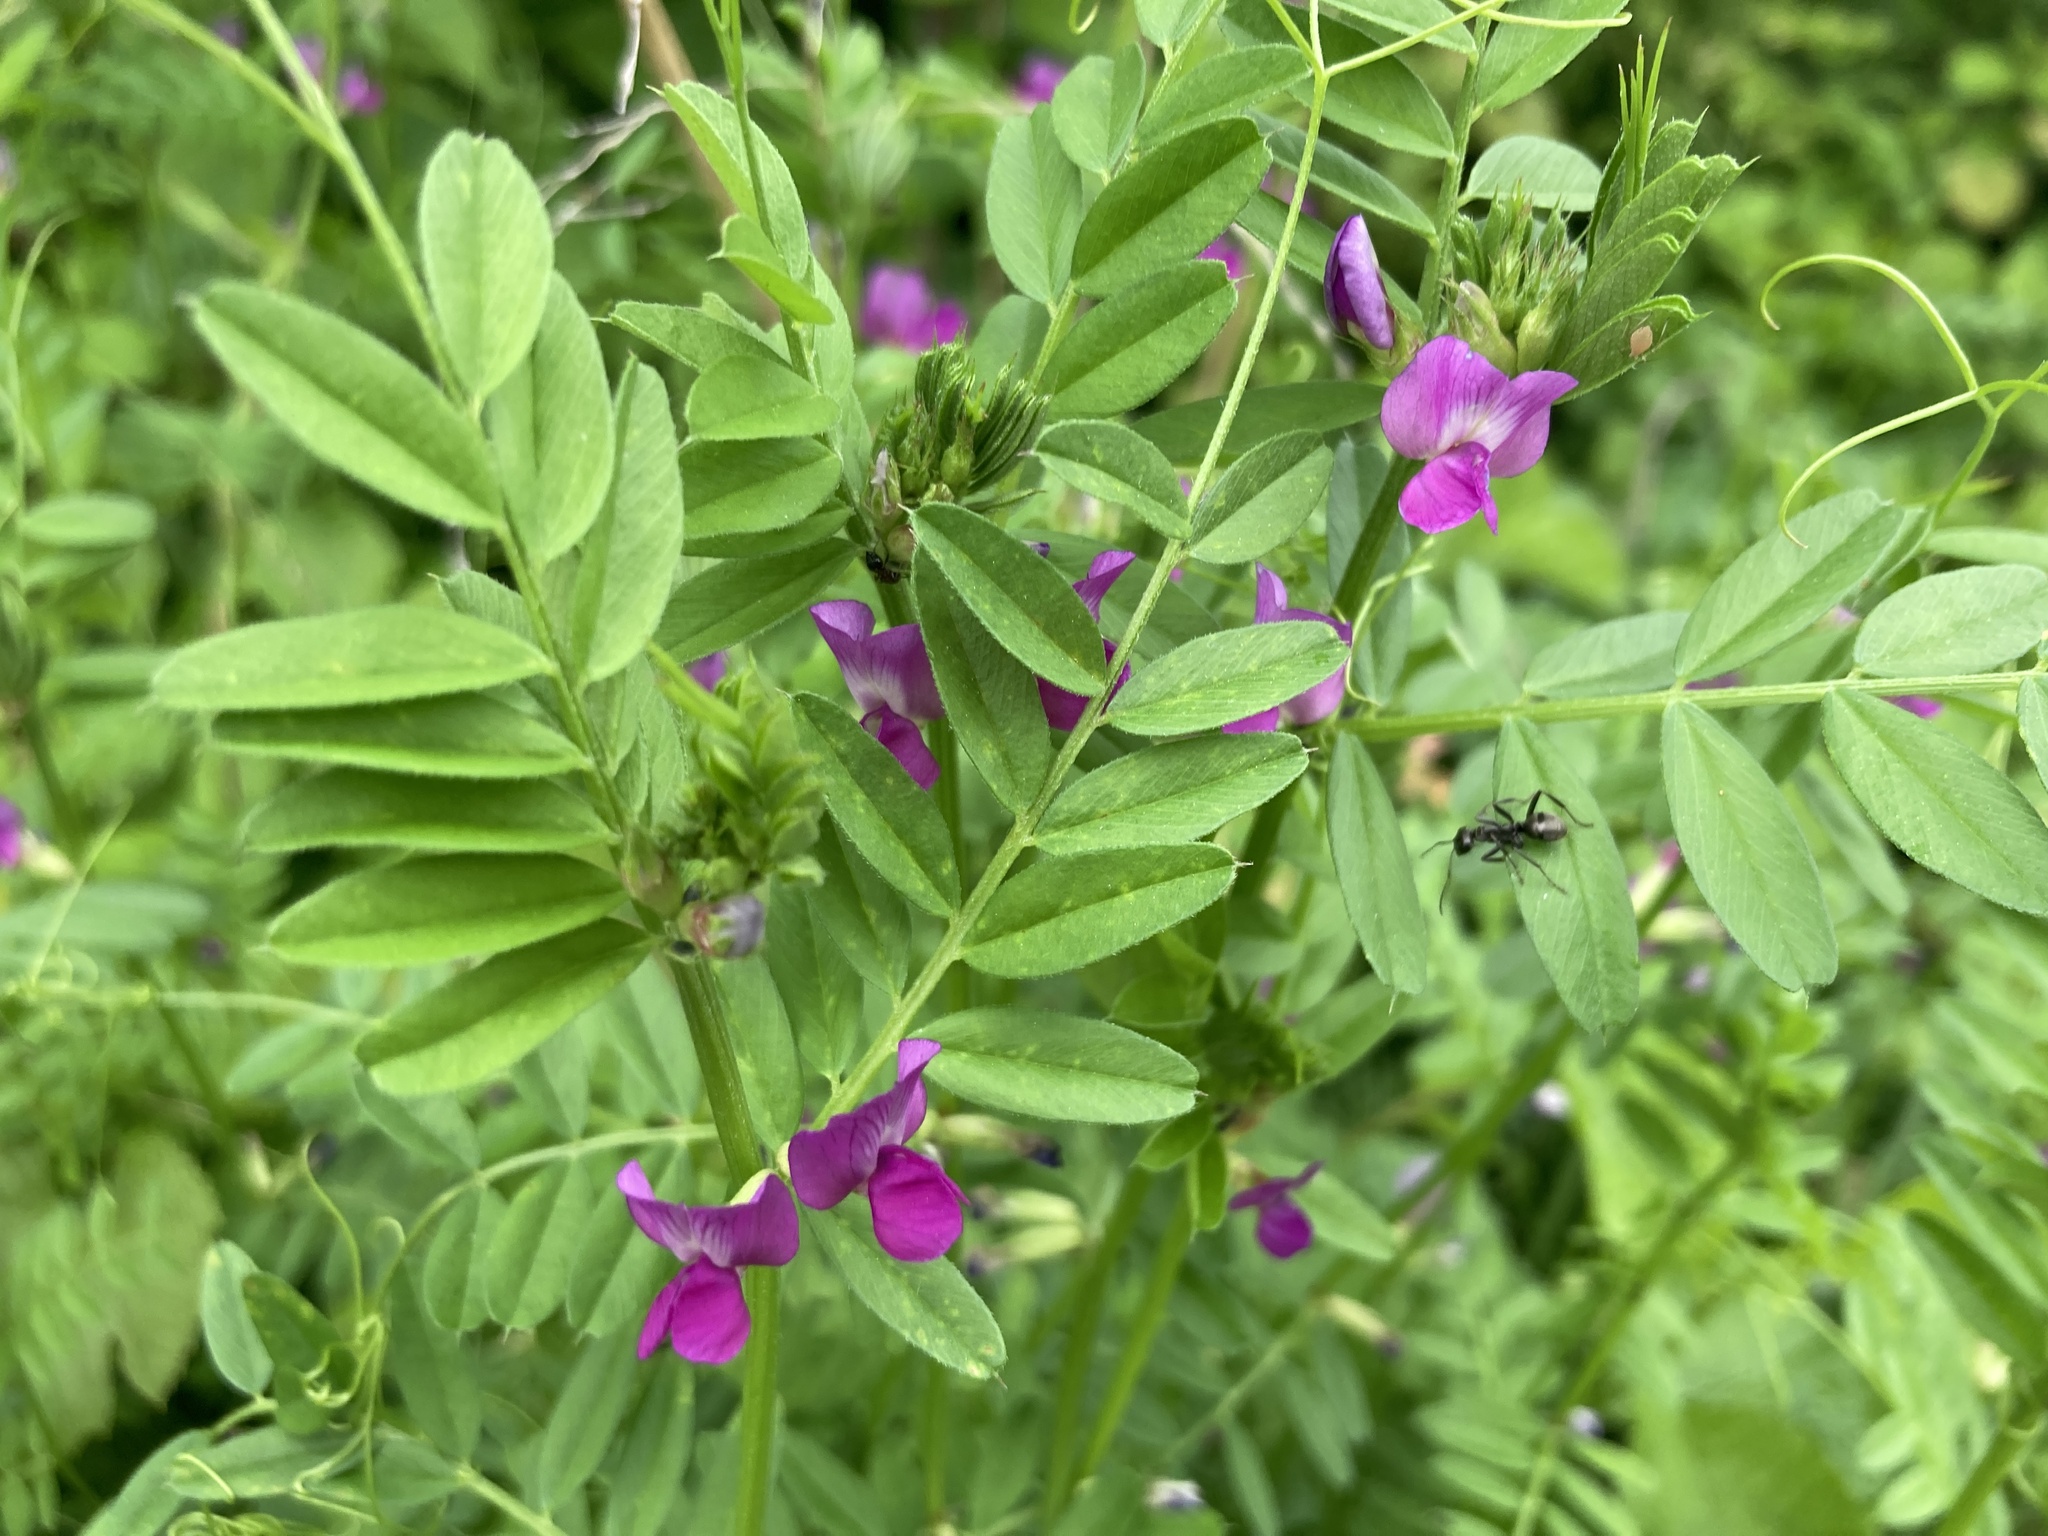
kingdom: Plantae
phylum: Tracheophyta
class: Magnoliopsida
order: Fabales
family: Fabaceae
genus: Vicia
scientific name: Vicia sativa
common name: Garden vetch
